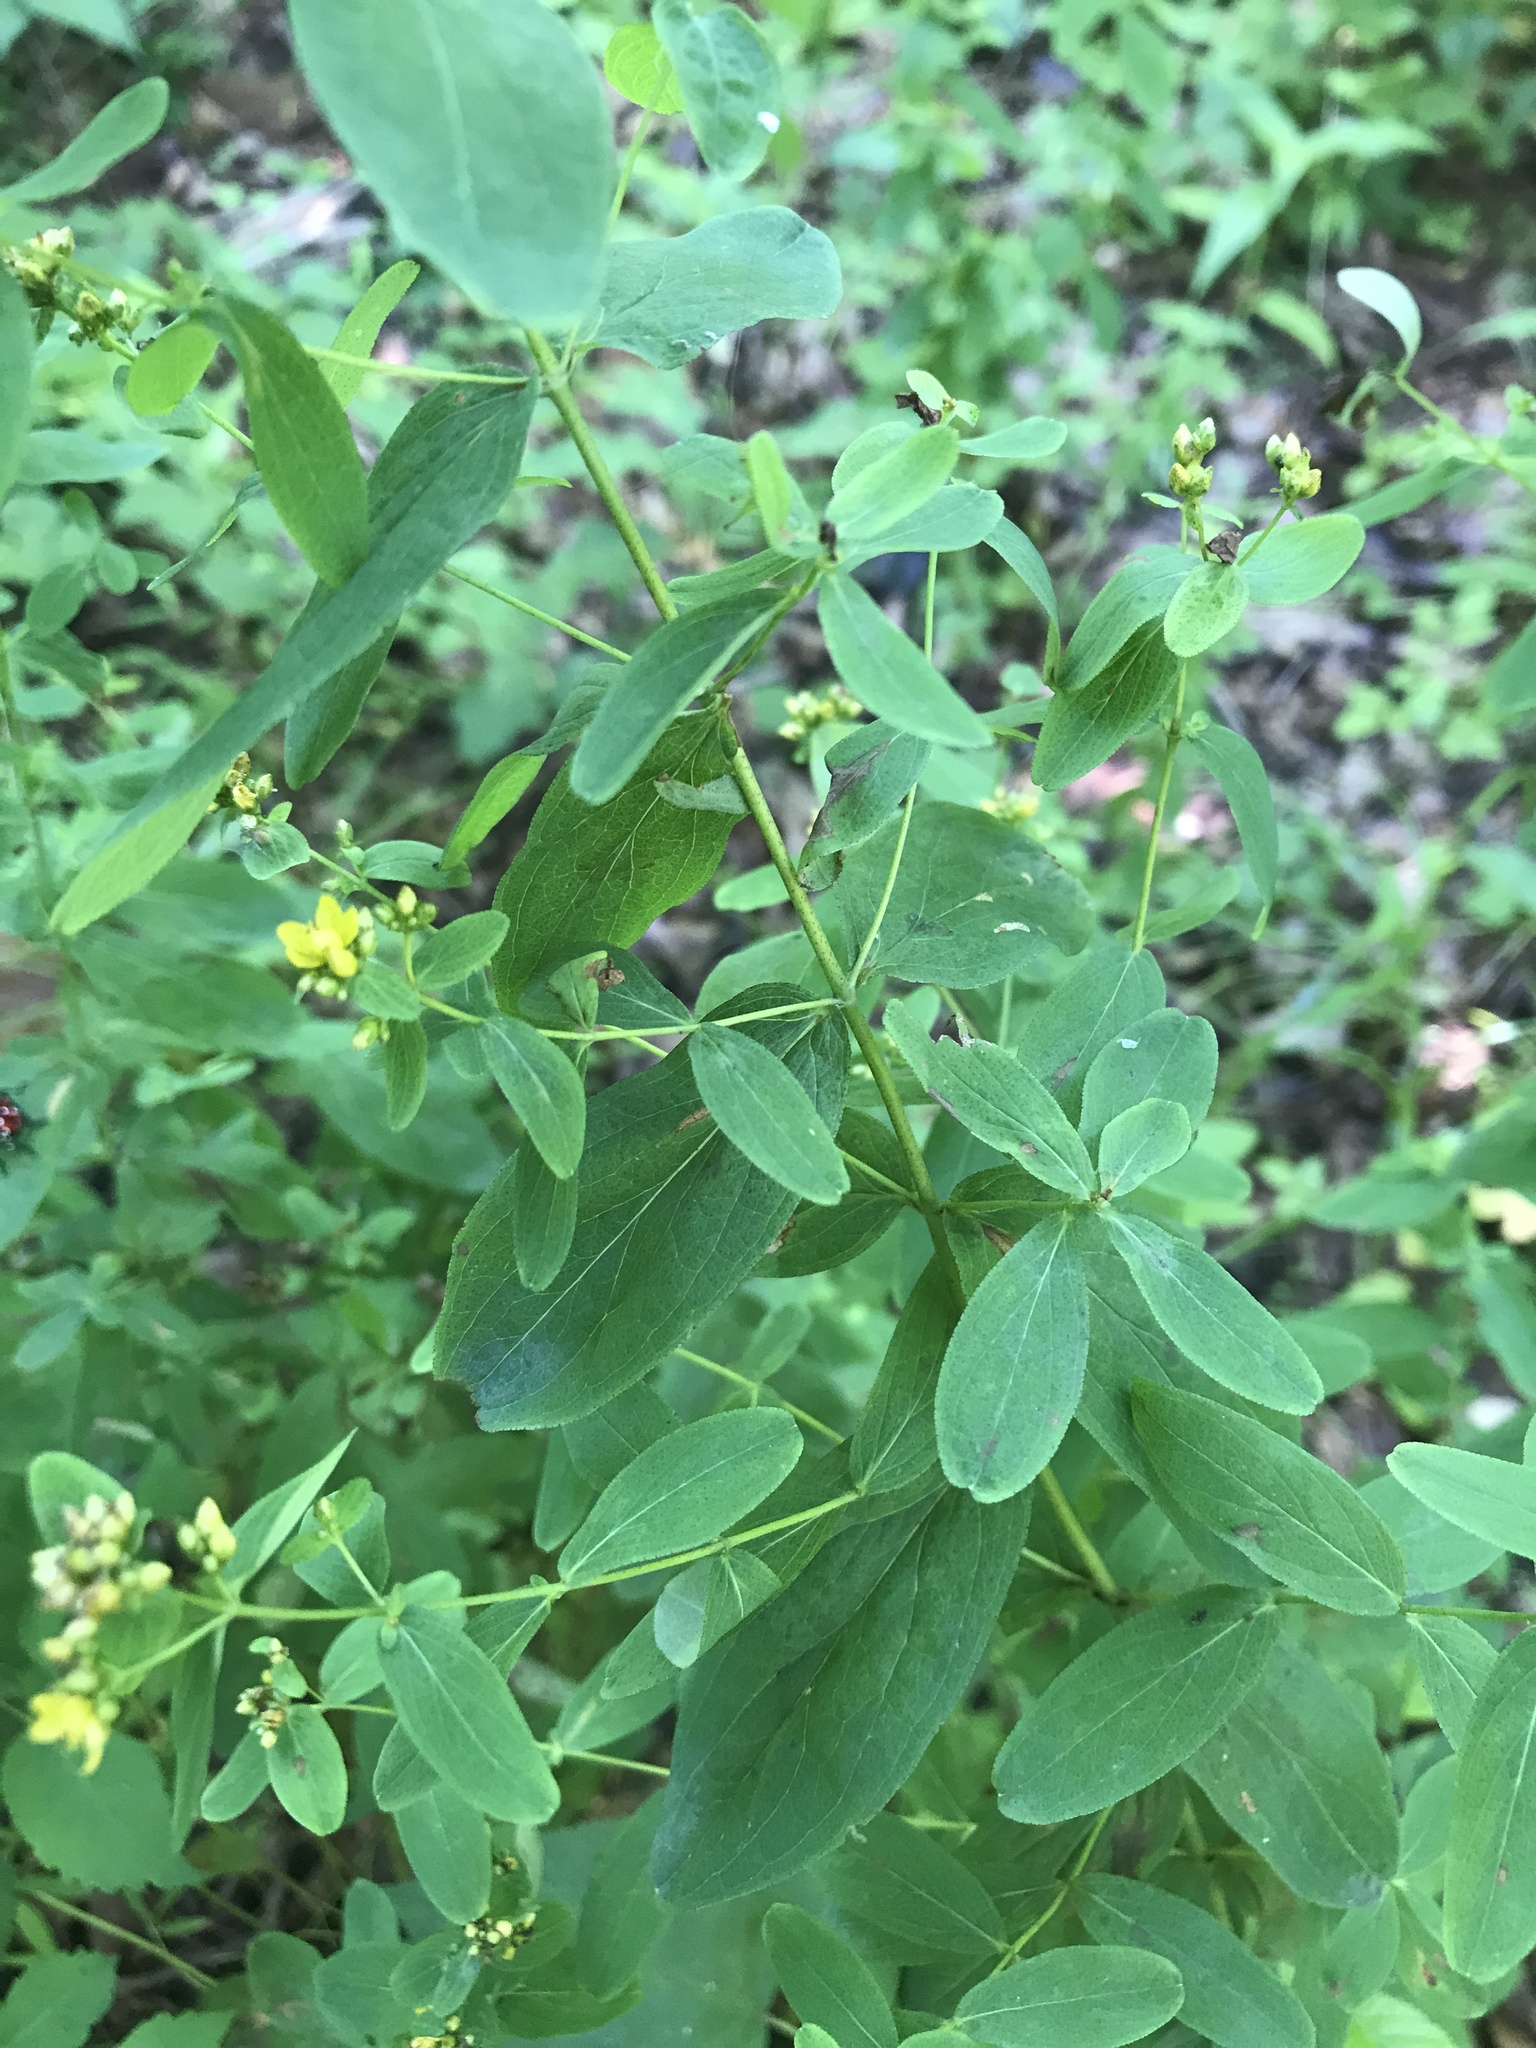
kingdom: Plantae
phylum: Tracheophyta
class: Magnoliopsida
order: Malpighiales
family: Hypericaceae
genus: Hypericum
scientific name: Hypericum punctatum
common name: Spotted st. john's-wort
